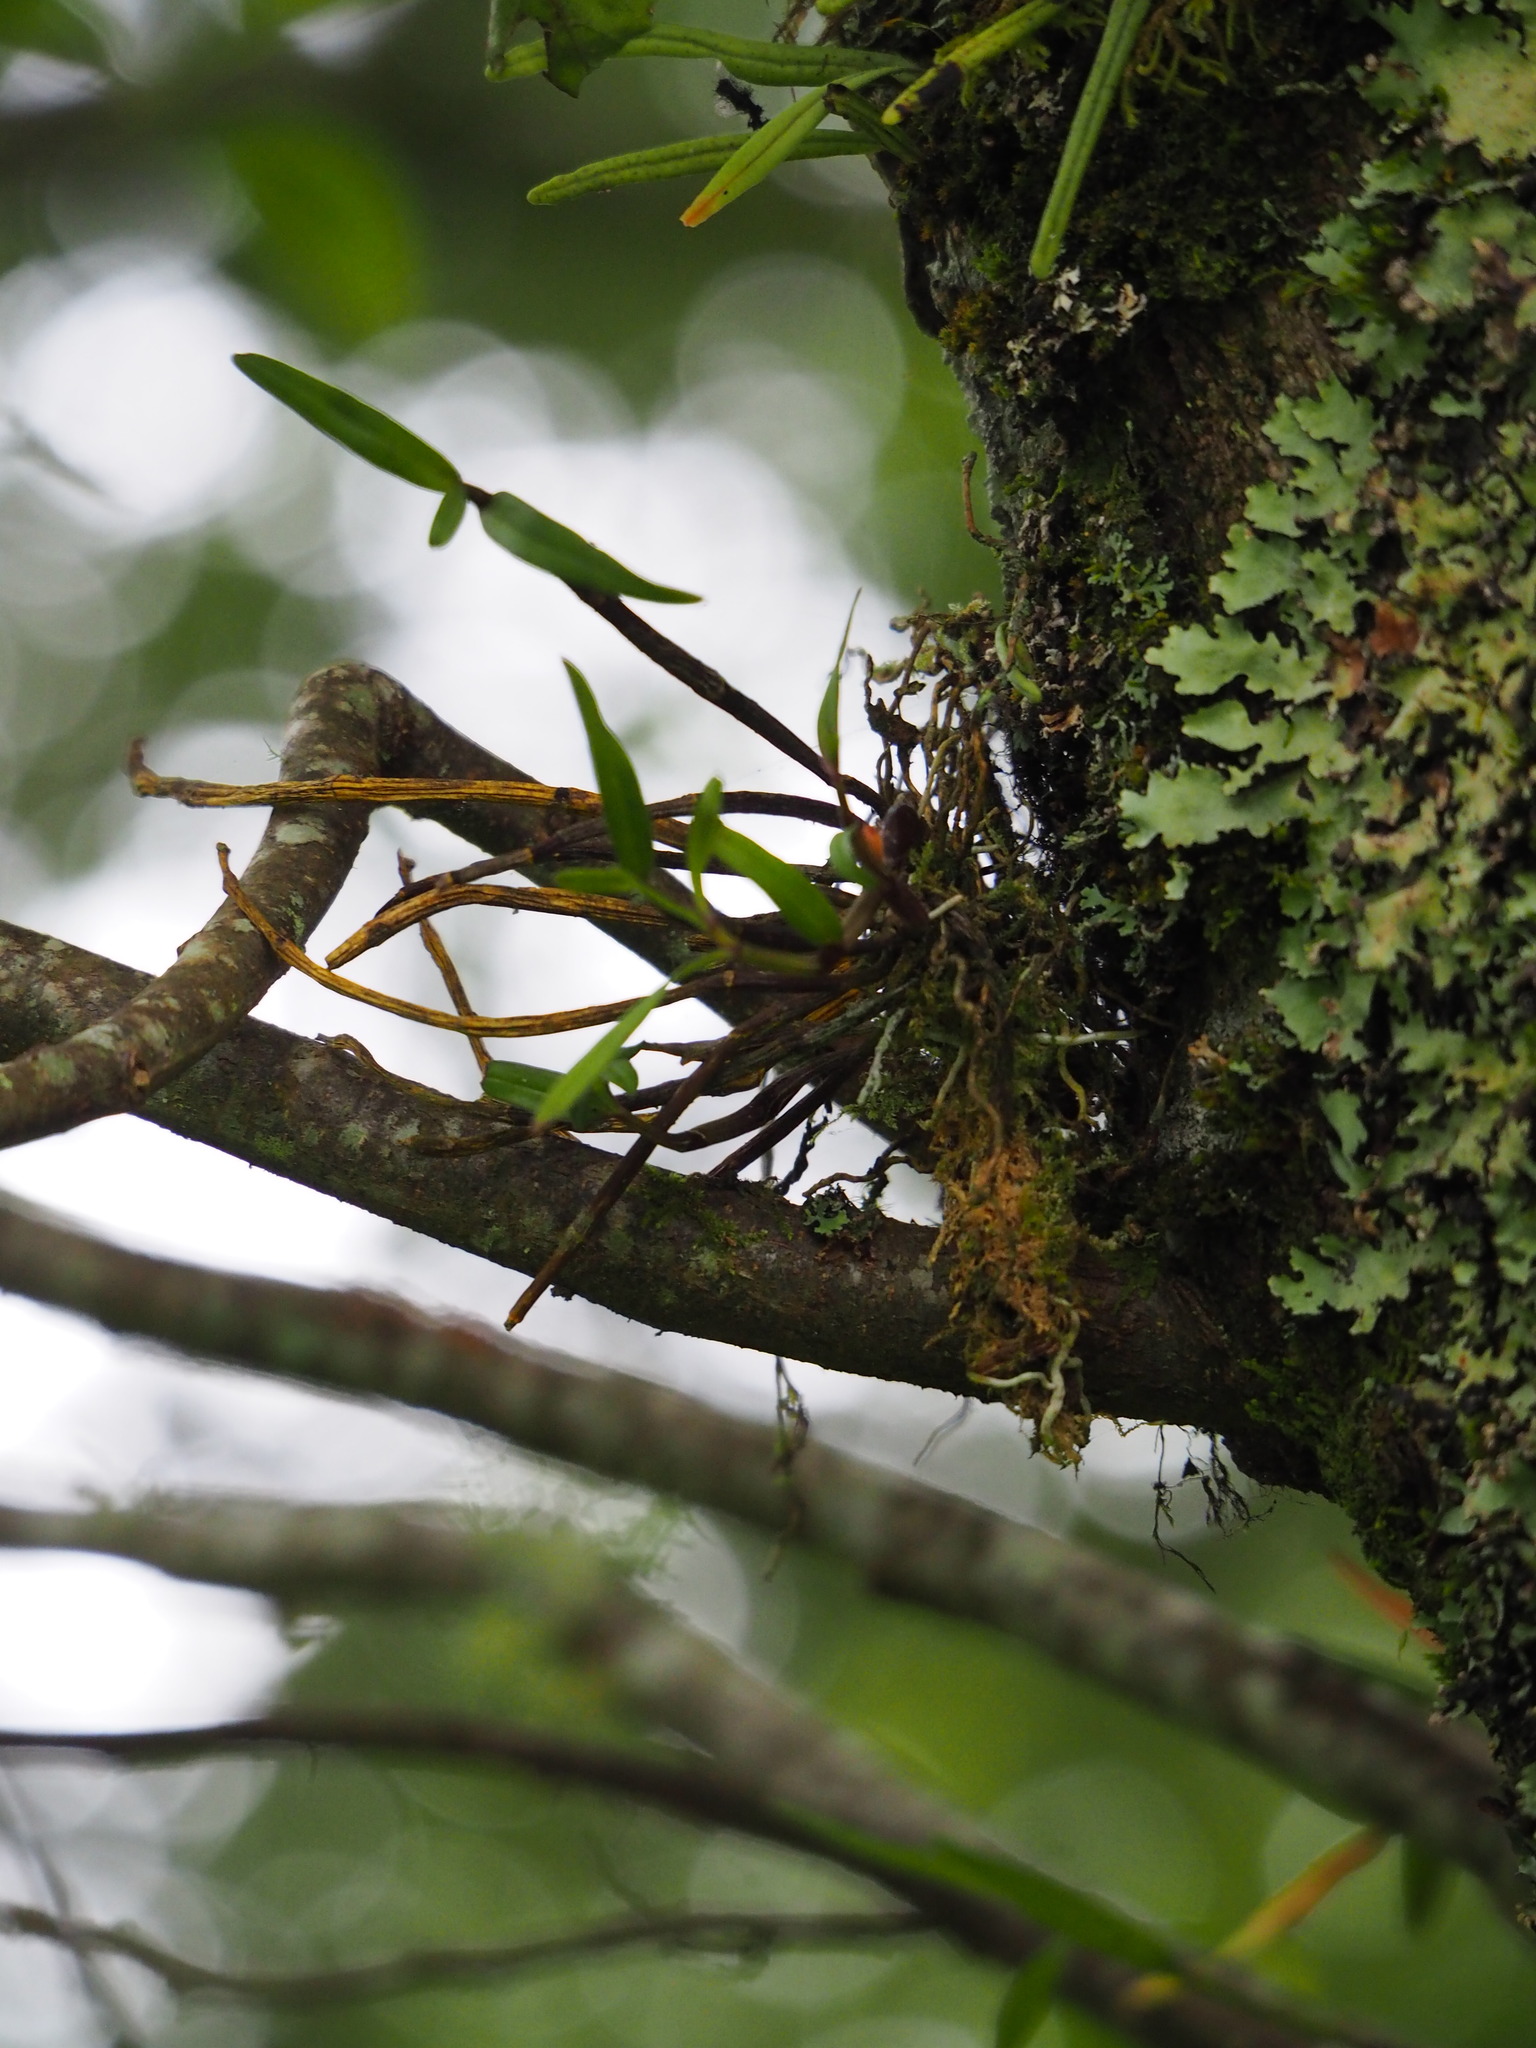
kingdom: Plantae
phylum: Tracheophyta
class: Liliopsida
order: Asparagales
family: Orchidaceae
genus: Dendrobium
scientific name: Dendrobium moniliforme
